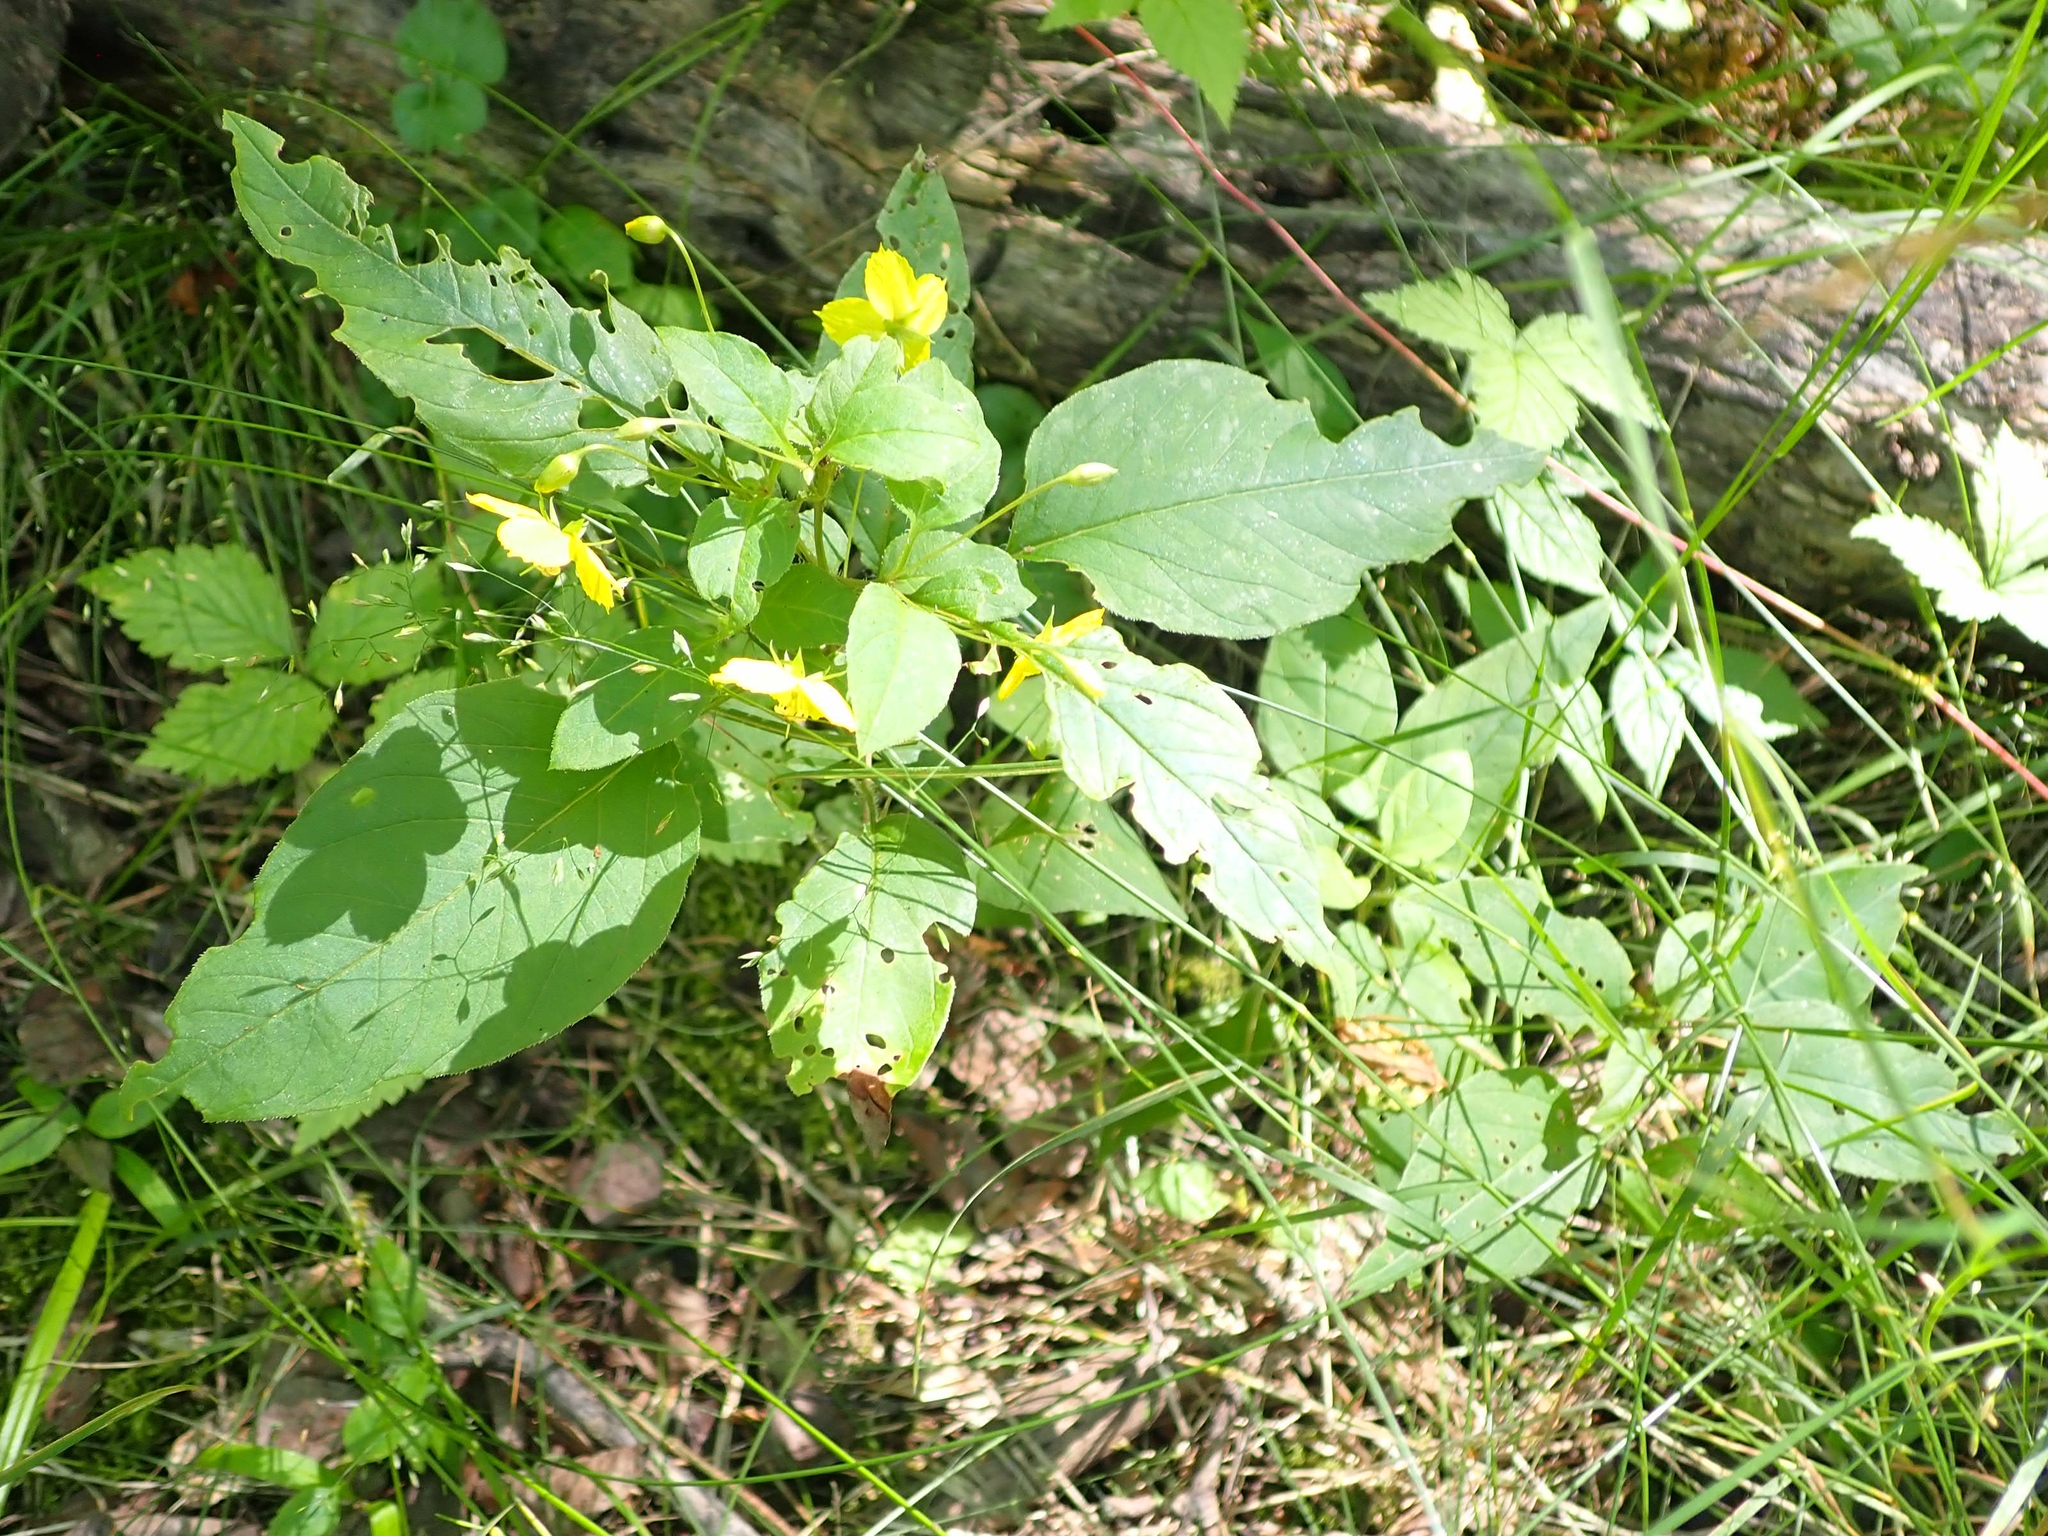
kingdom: Plantae
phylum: Tracheophyta
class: Magnoliopsida
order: Ericales
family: Primulaceae
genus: Lysimachia
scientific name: Lysimachia ciliata
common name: Fringed loosestrife
